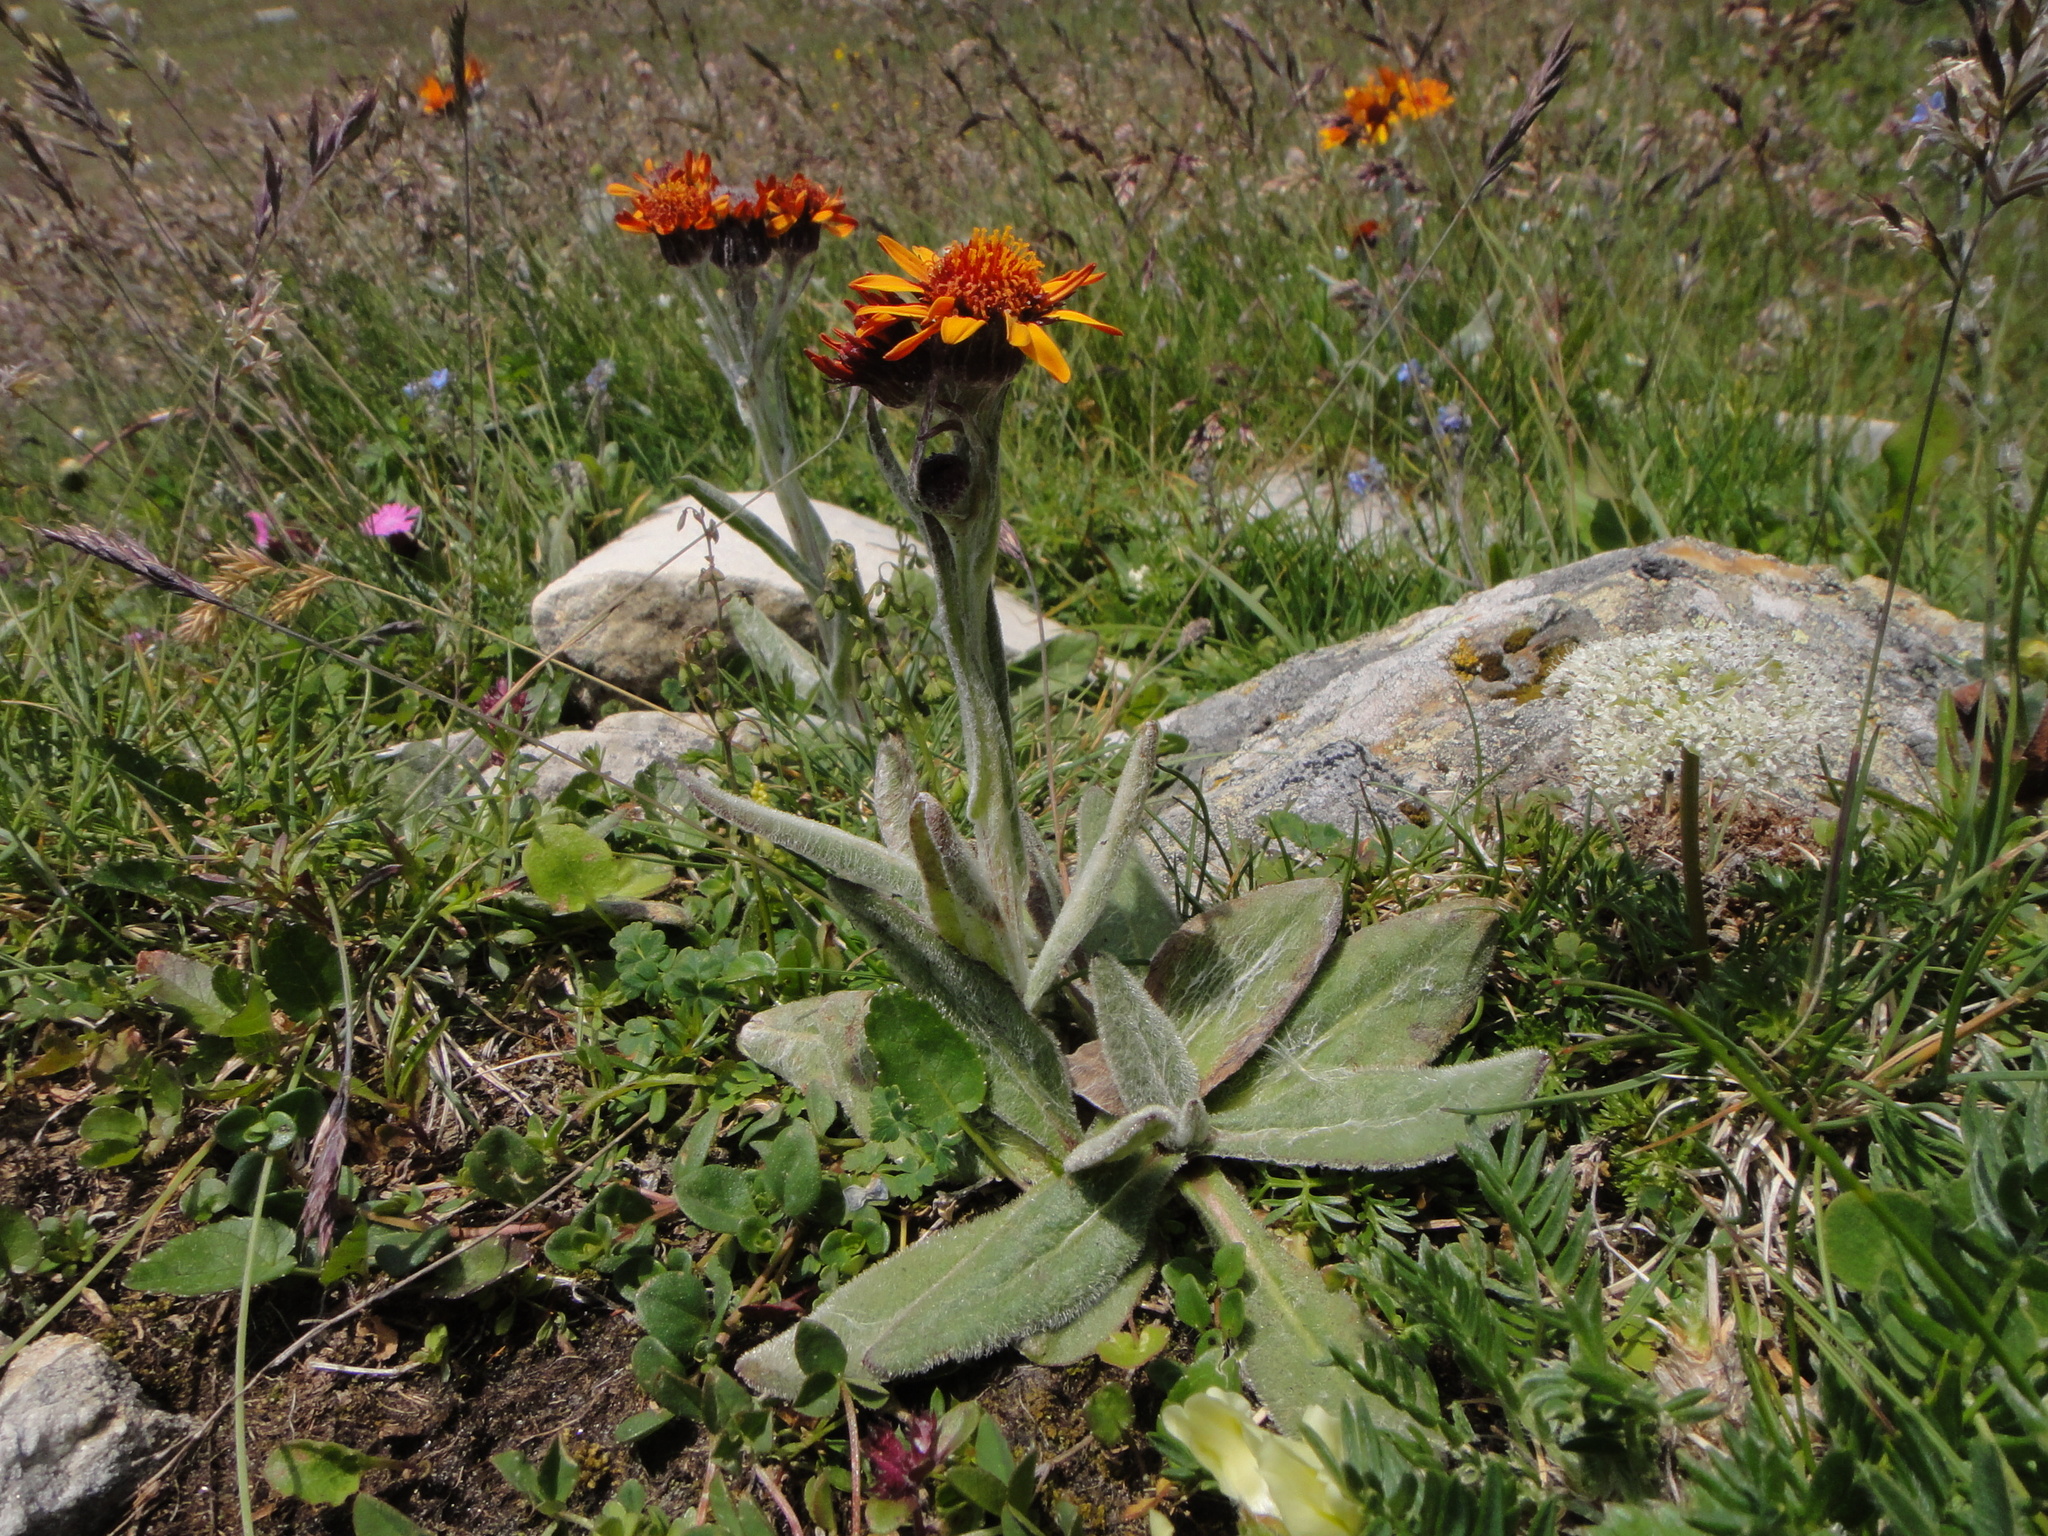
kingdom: Plantae
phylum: Tracheophyta
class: Magnoliopsida
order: Asterales
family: Asteraceae
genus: Tephroseris
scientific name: Tephroseris integrifolia
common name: Field fleawort
